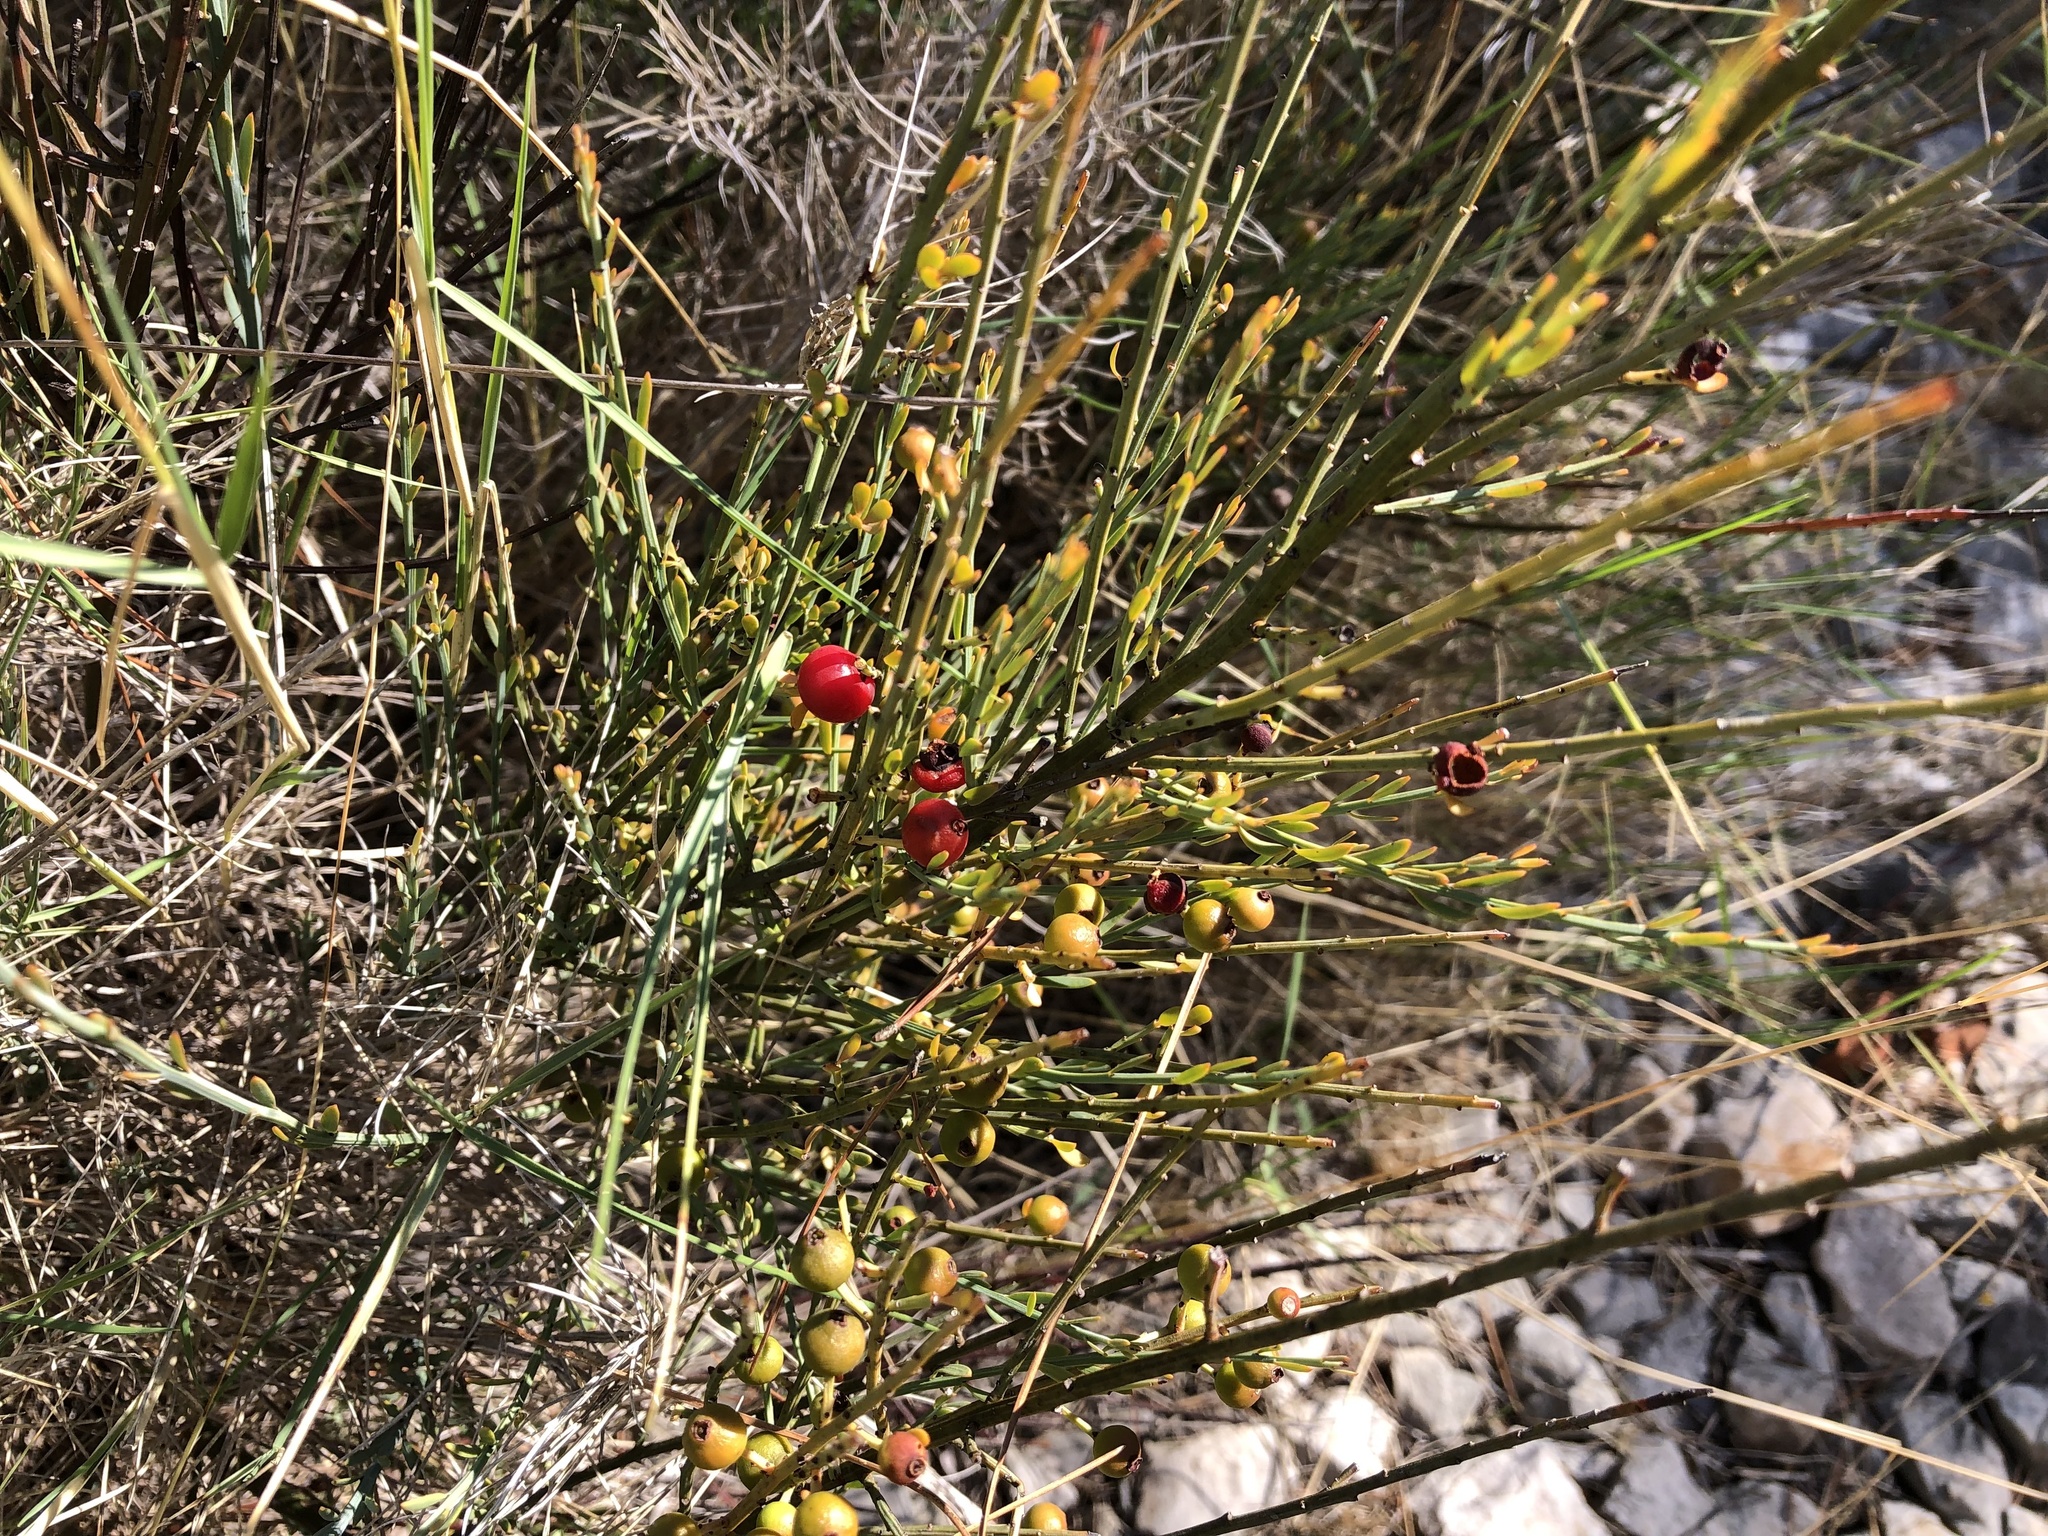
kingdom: Plantae
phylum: Tracheophyta
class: Magnoliopsida
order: Santalales
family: Santalaceae
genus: Osyris
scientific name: Osyris alba
